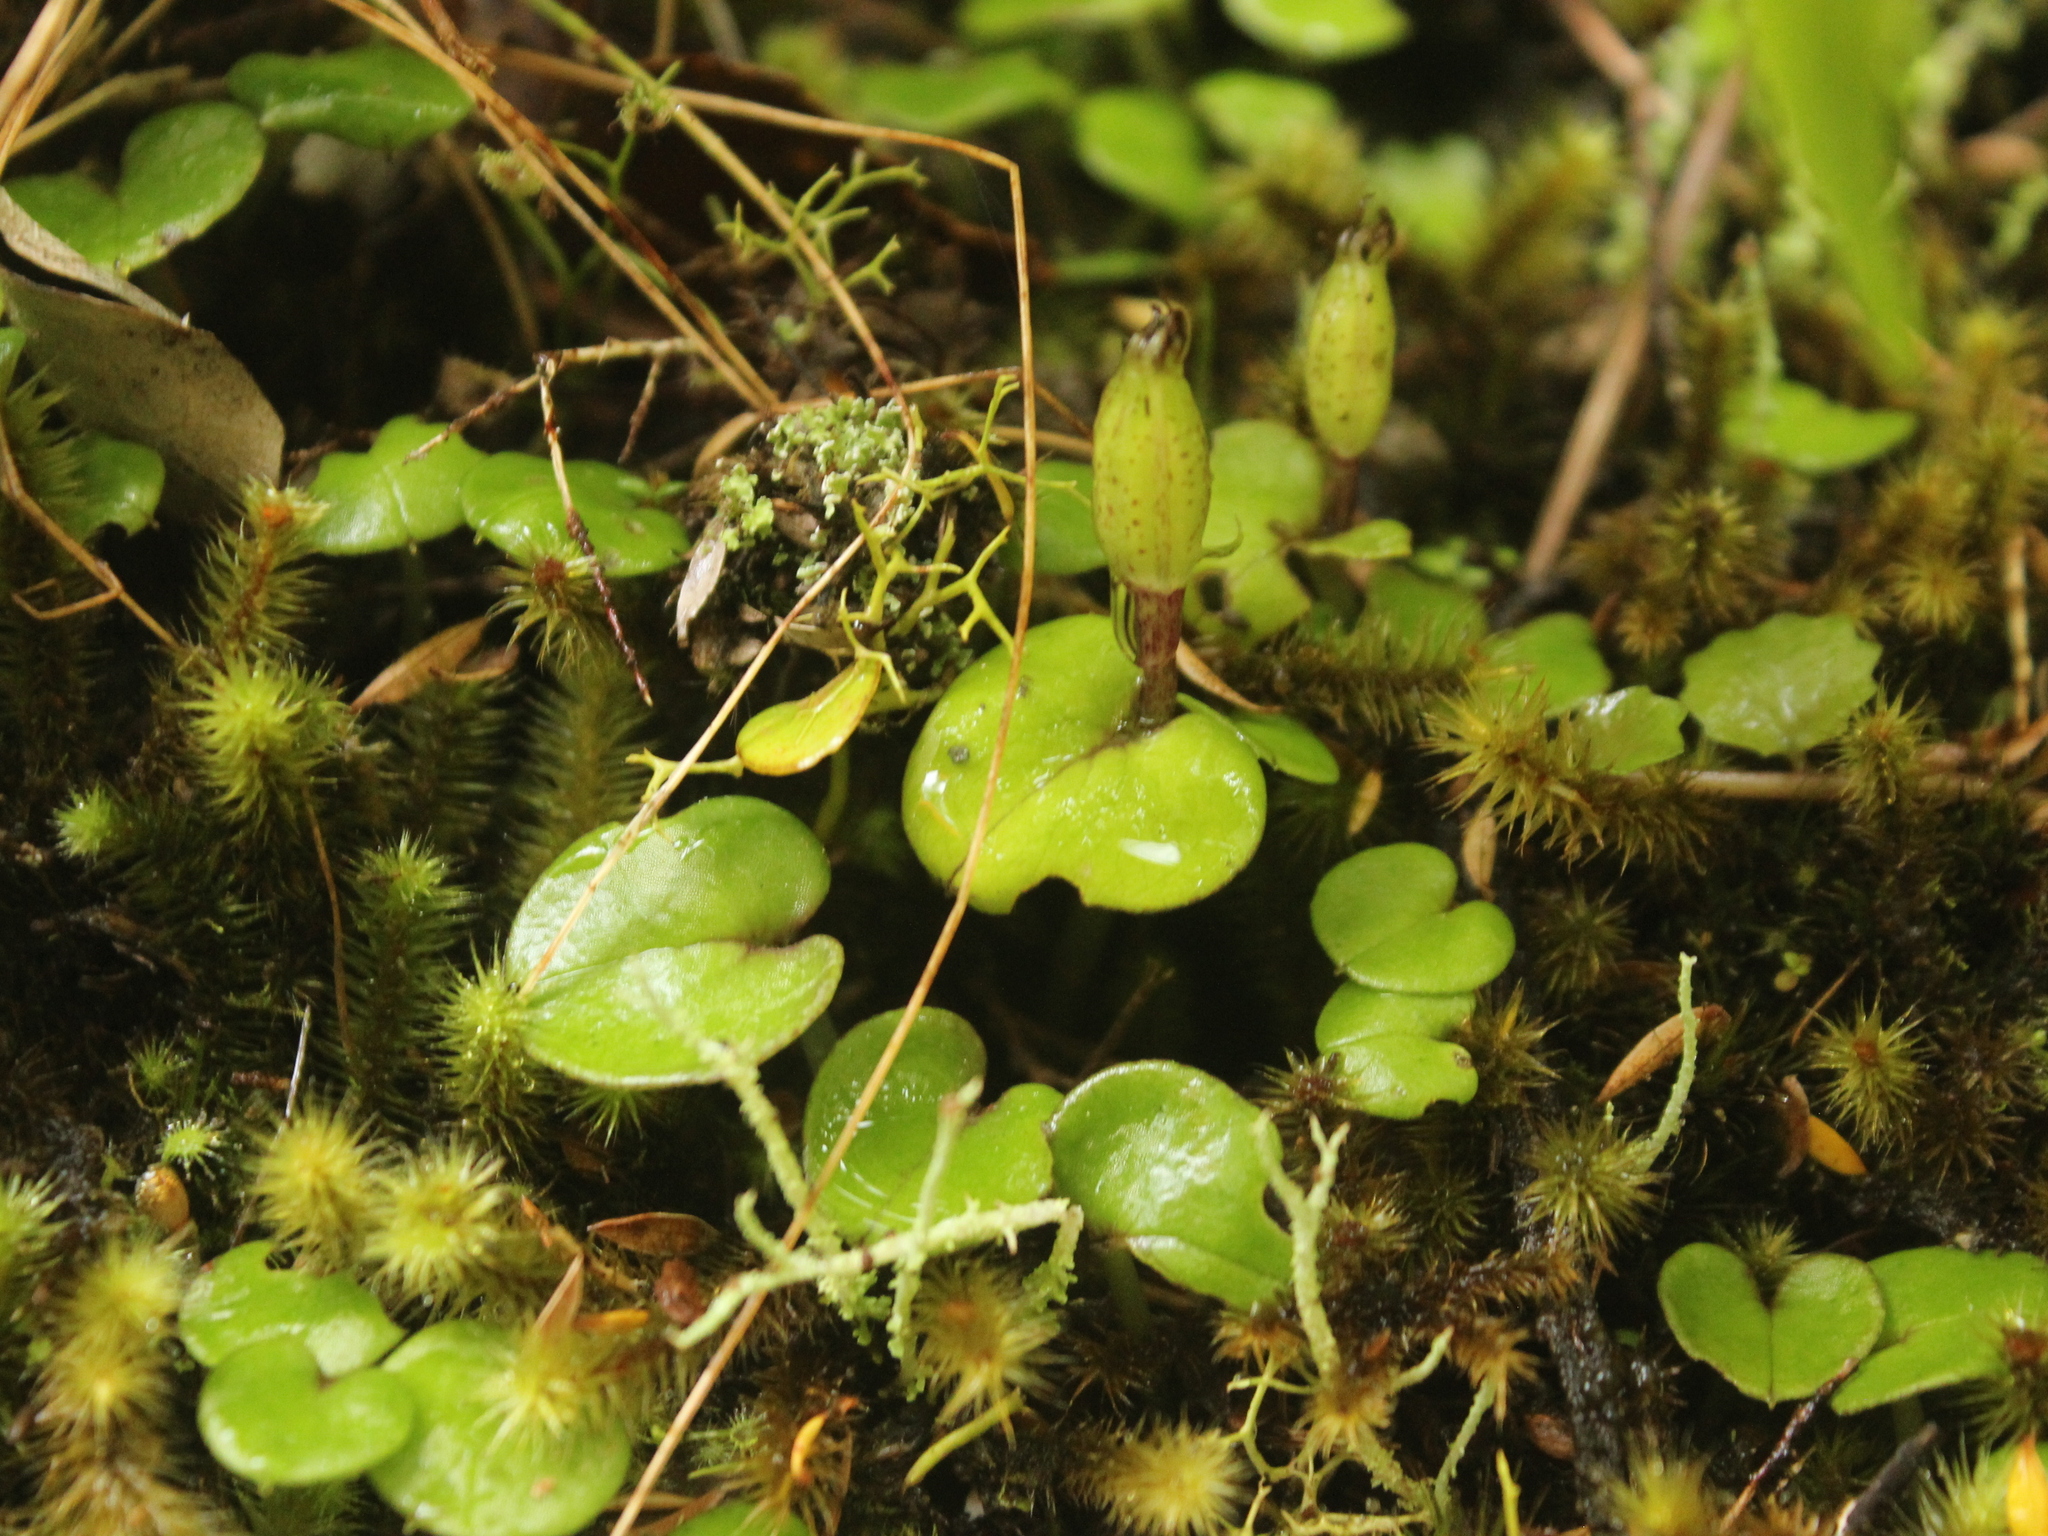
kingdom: Plantae
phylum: Tracheophyta
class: Liliopsida
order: Asparagales
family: Orchidaceae
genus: Corybas
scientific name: Corybas dienemus
